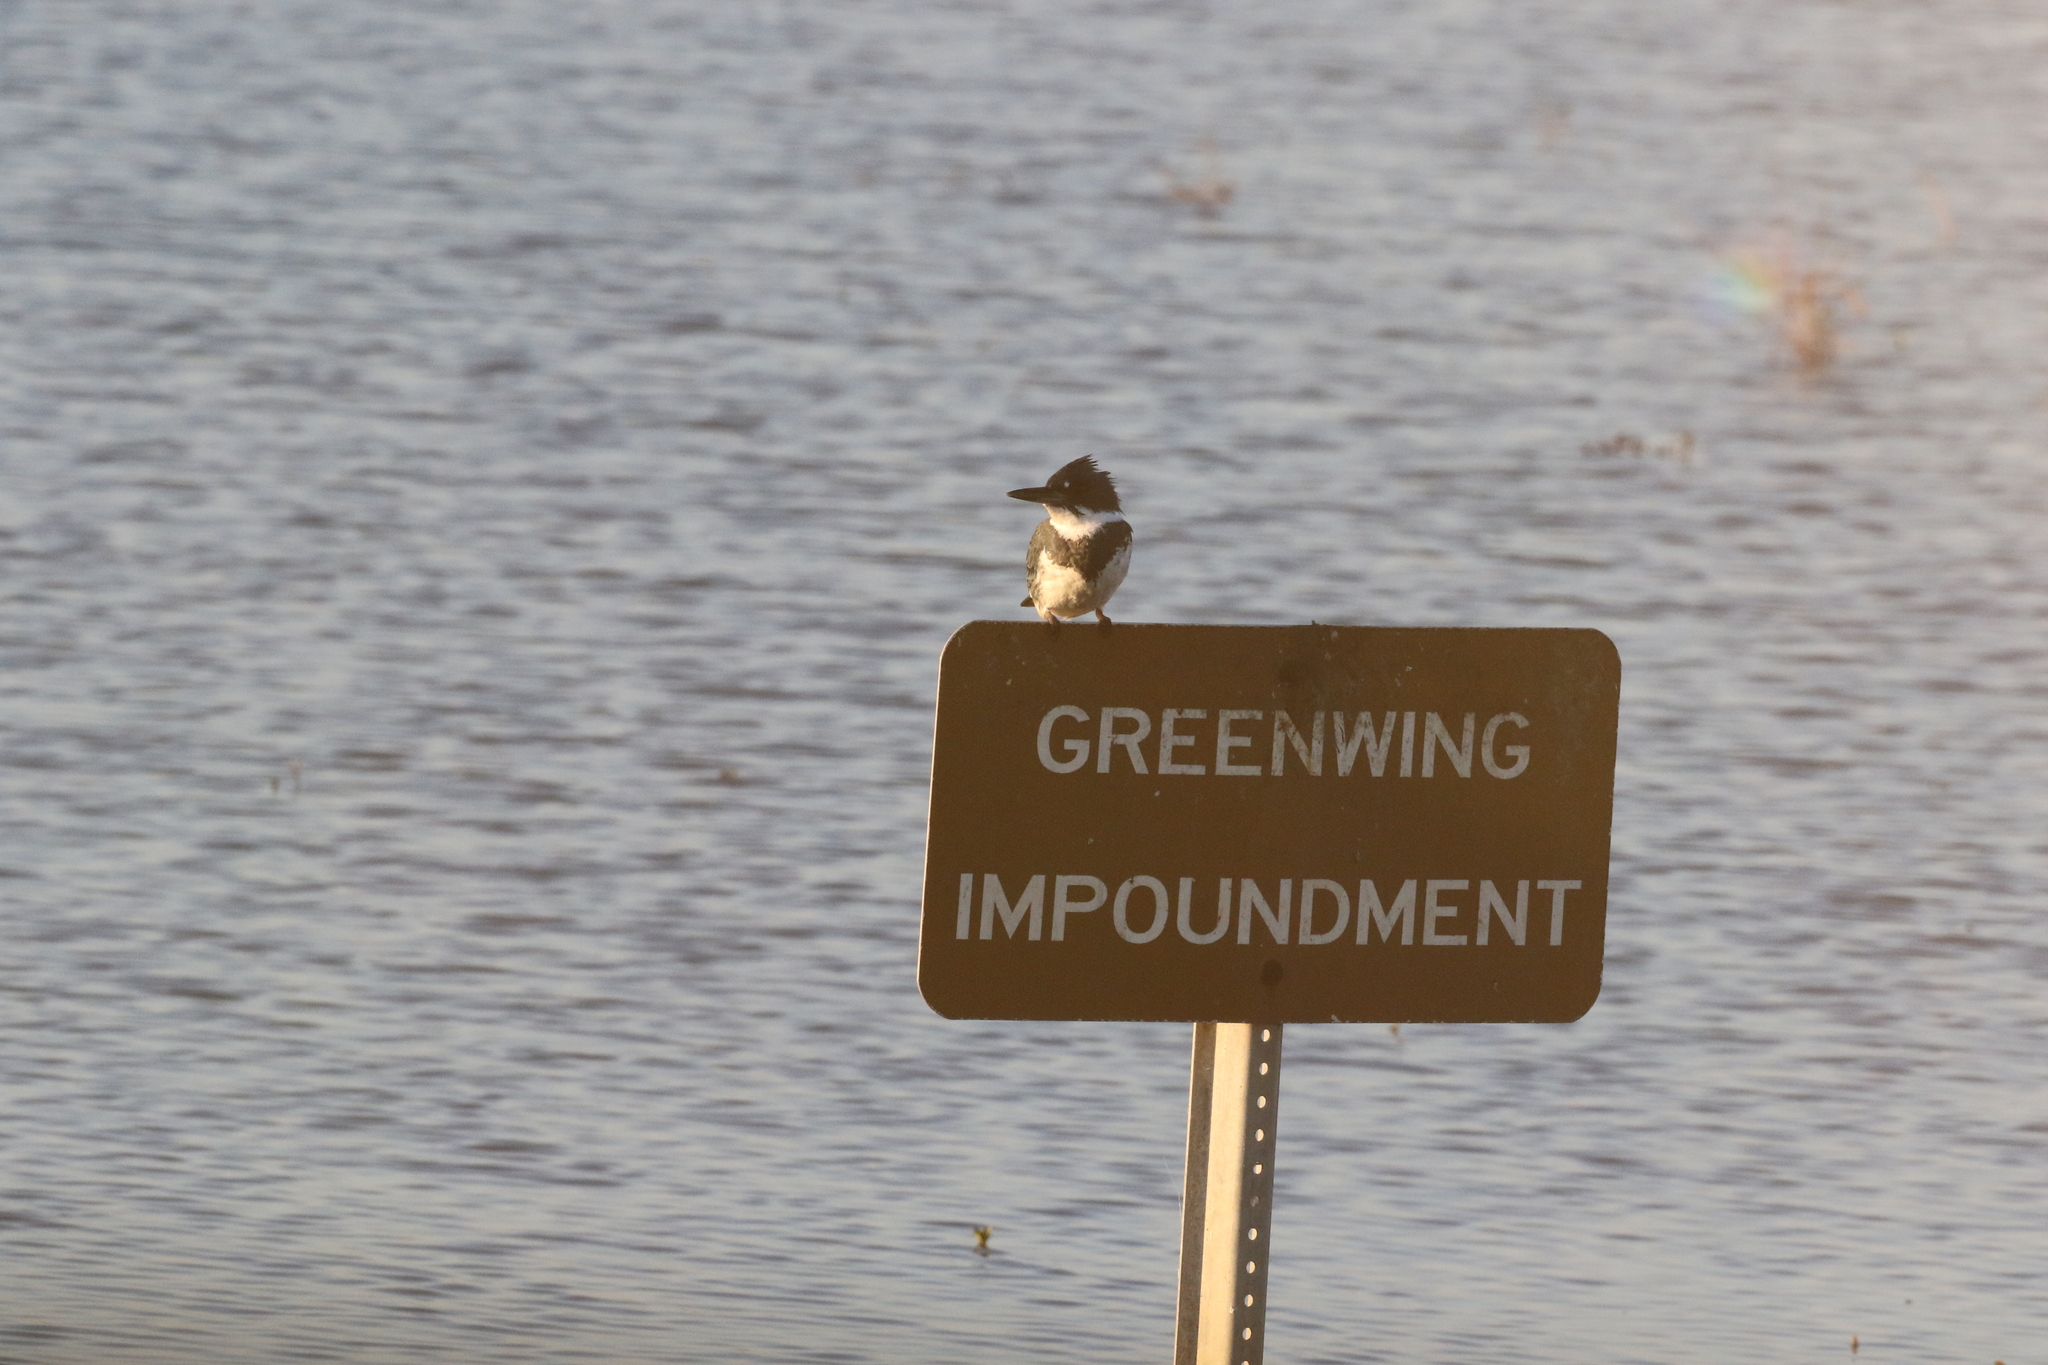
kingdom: Animalia
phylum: Chordata
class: Aves
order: Coraciiformes
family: Alcedinidae
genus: Megaceryle
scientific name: Megaceryle alcyon
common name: Belted kingfisher
